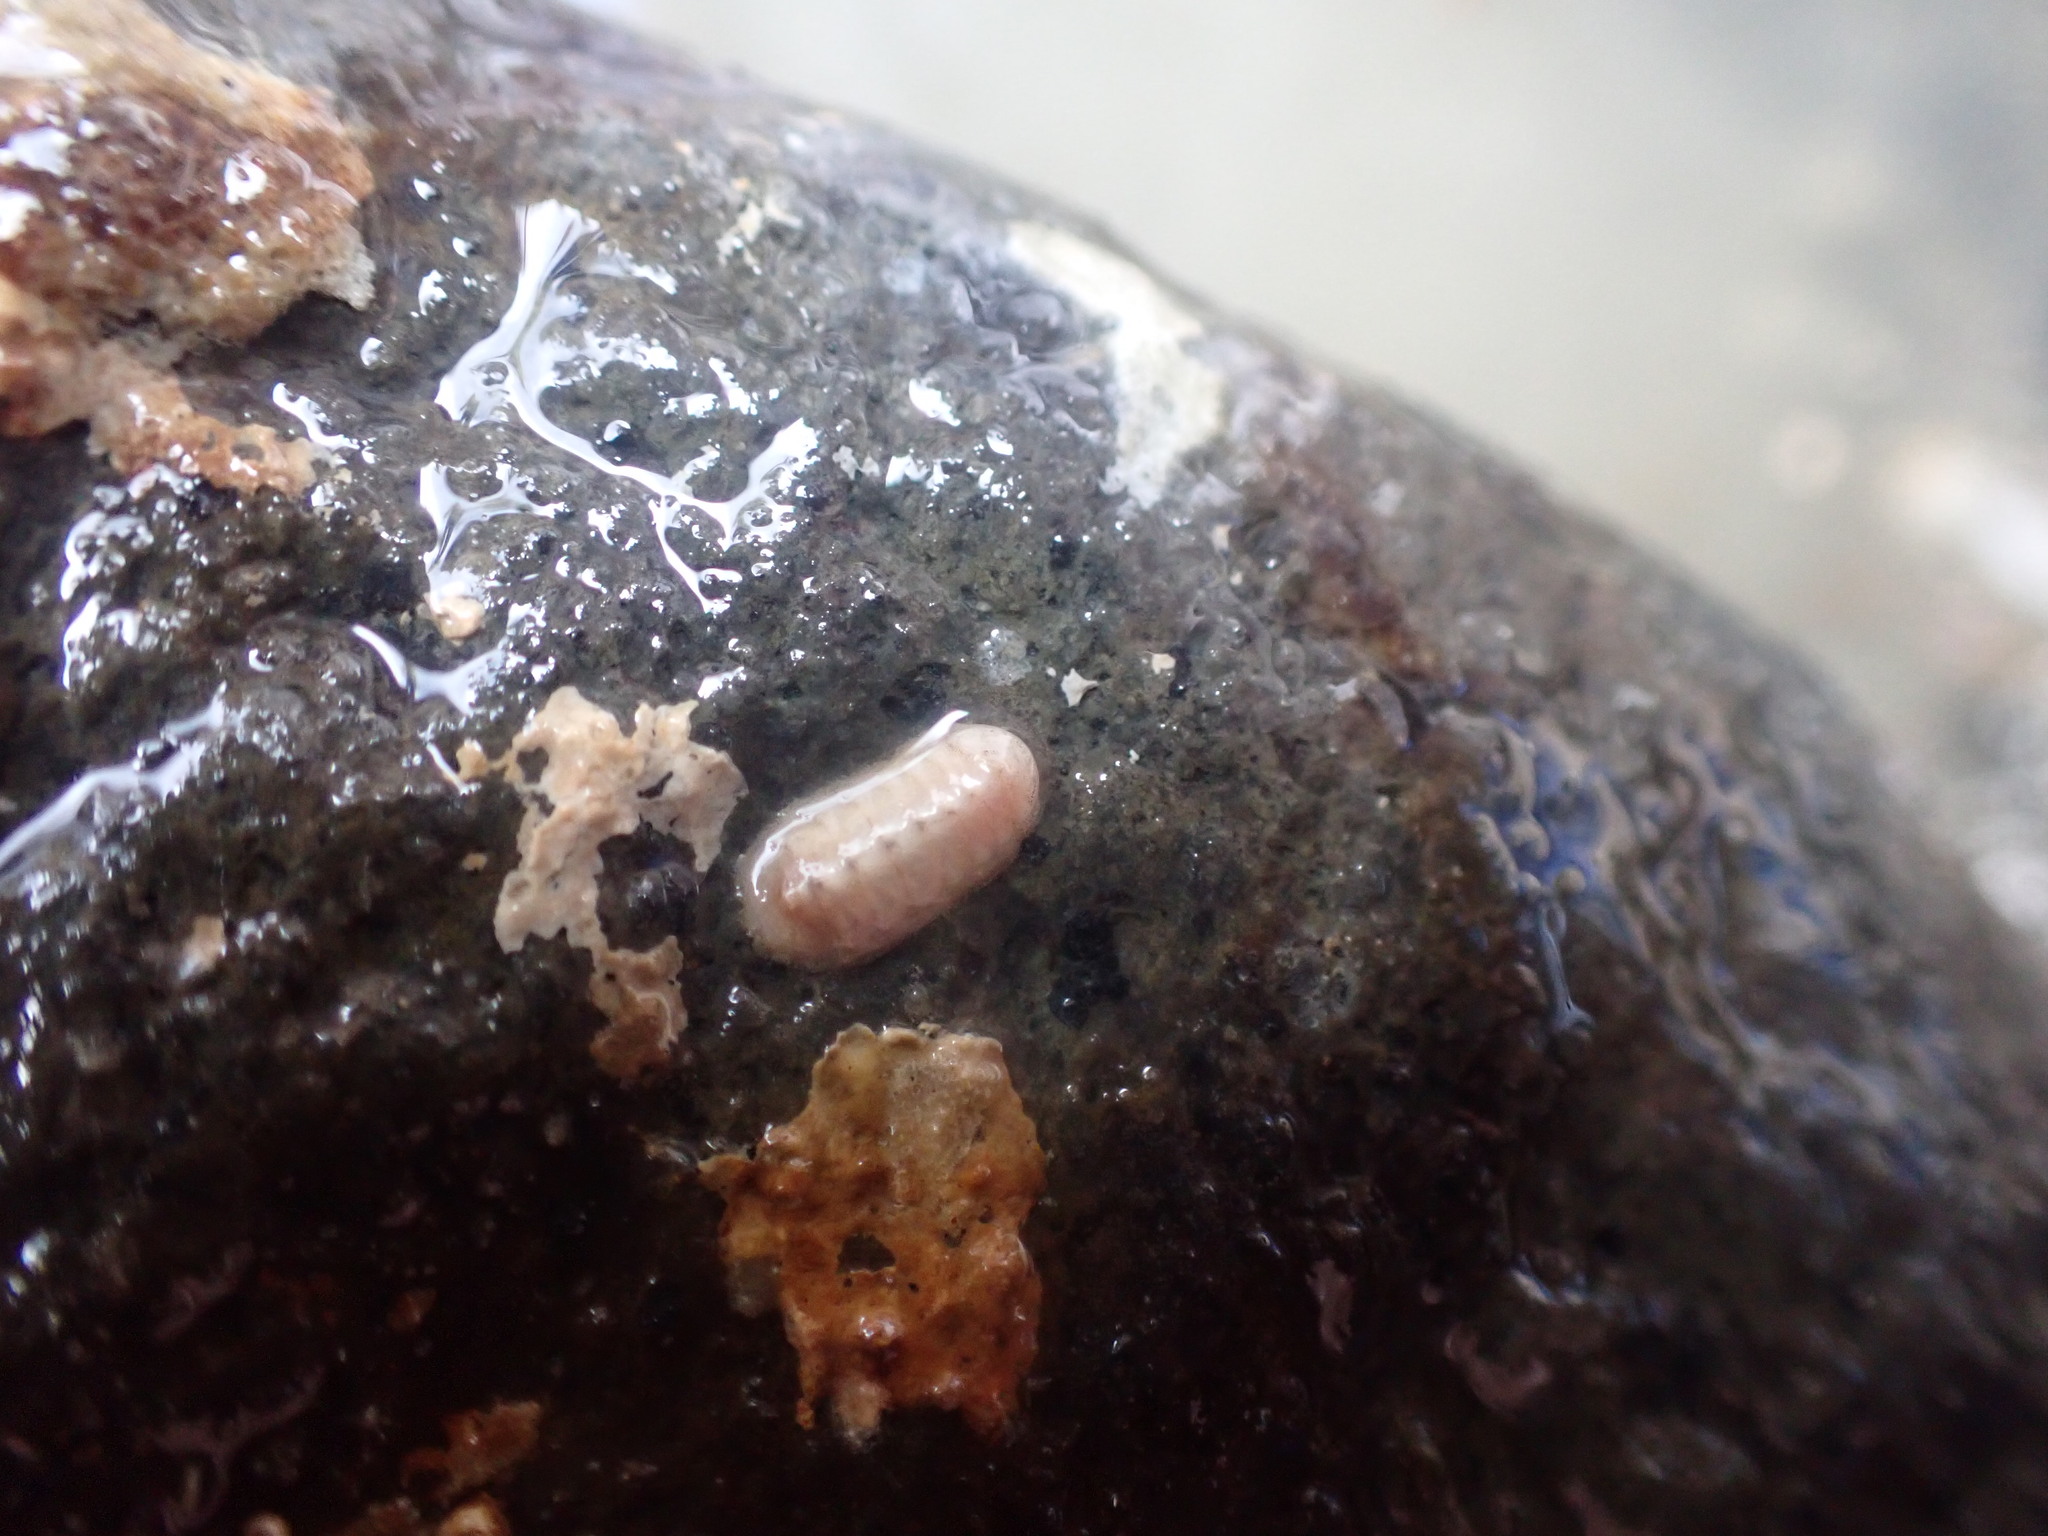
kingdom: Animalia
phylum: Mollusca
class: Polyplacophora
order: Lepidopleurida
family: Leptochitonidae
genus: Leptochiton
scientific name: Leptochiton inquinatus
